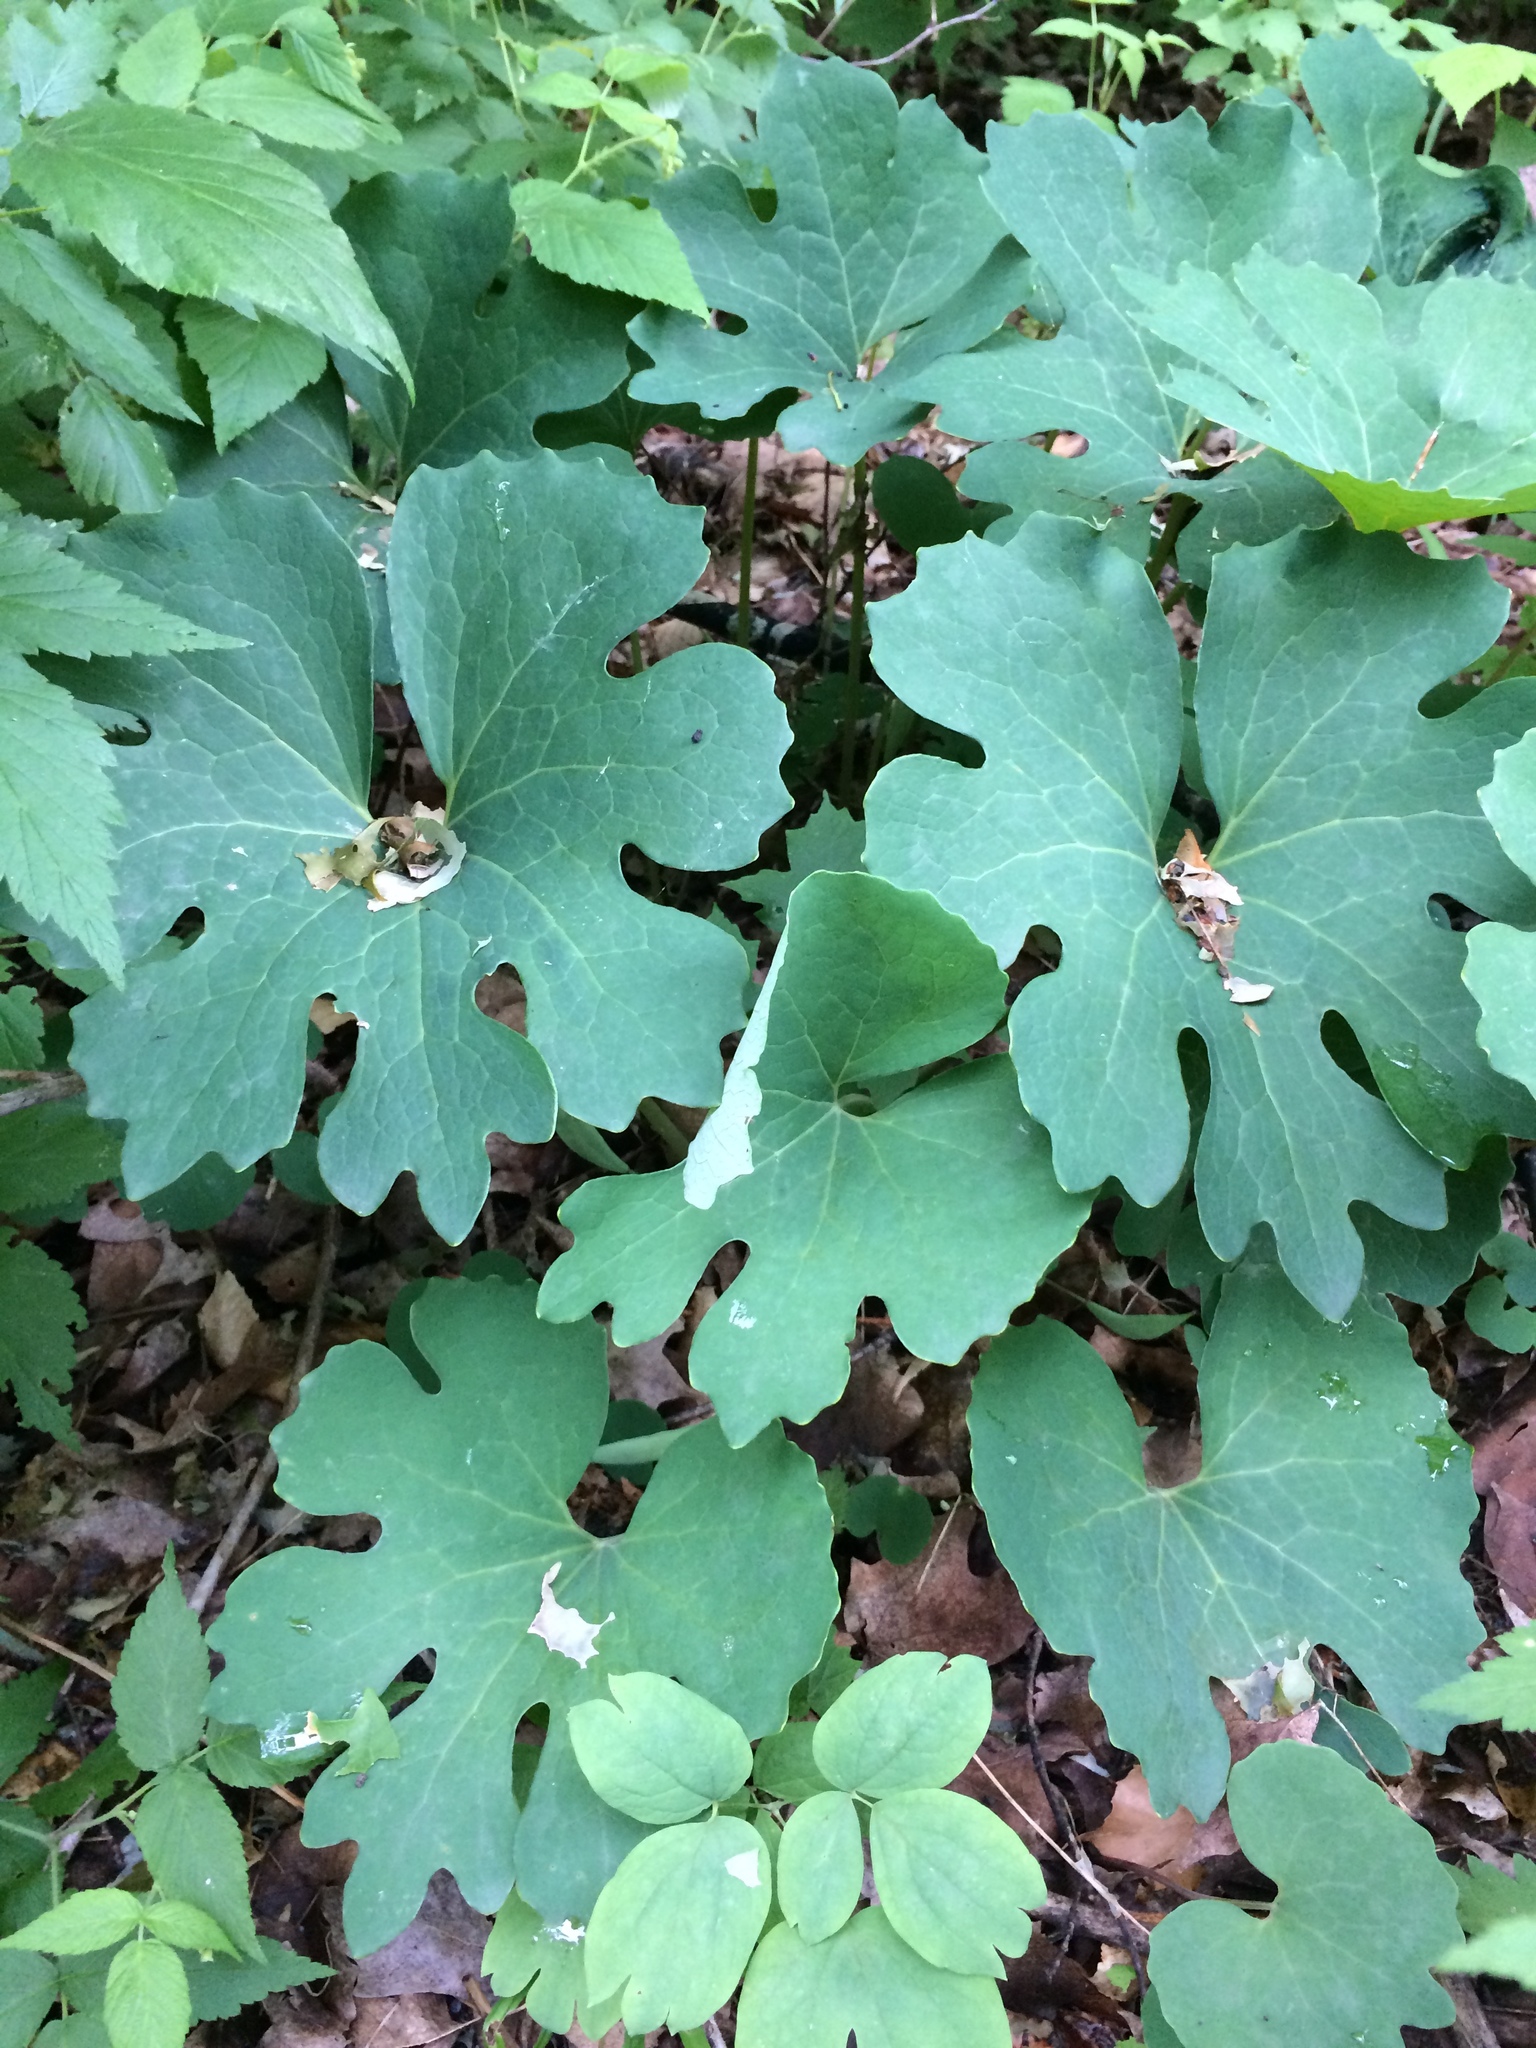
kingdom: Plantae
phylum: Tracheophyta
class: Magnoliopsida
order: Ranunculales
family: Papaveraceae
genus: Sanguinaria
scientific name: Sanguinaria canadensis
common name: Bloodroot
